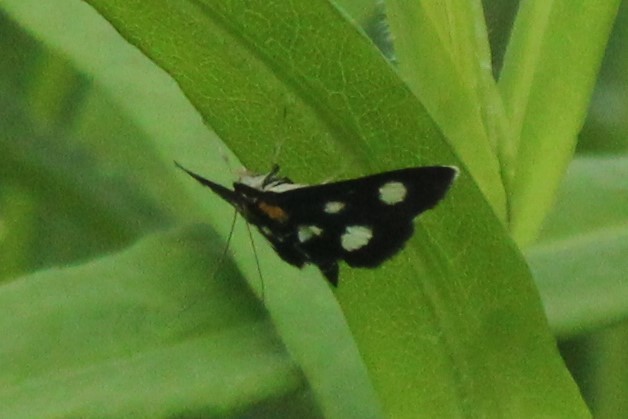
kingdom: Animalia
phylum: Arthropoda
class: Insecta
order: Lepidoptera
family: Crambidae
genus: Anania
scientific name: Anania funebris
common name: White-spotted sable moth
